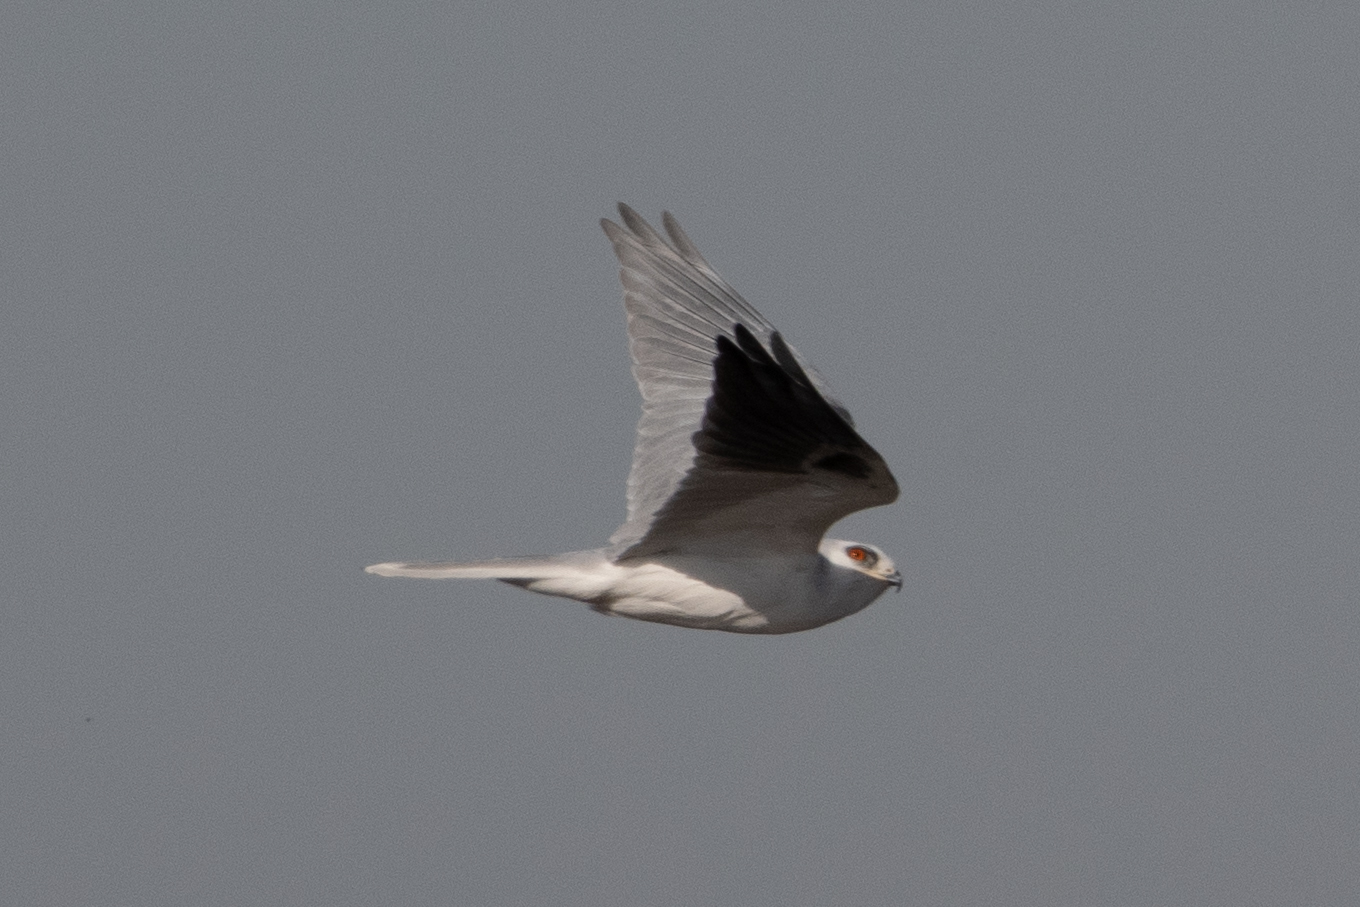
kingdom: Animalia
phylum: Chordata
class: Aves
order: Accipitriformes
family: Accipitridae
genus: Elanus
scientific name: Elanus leucurus
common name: White-tailed kite
